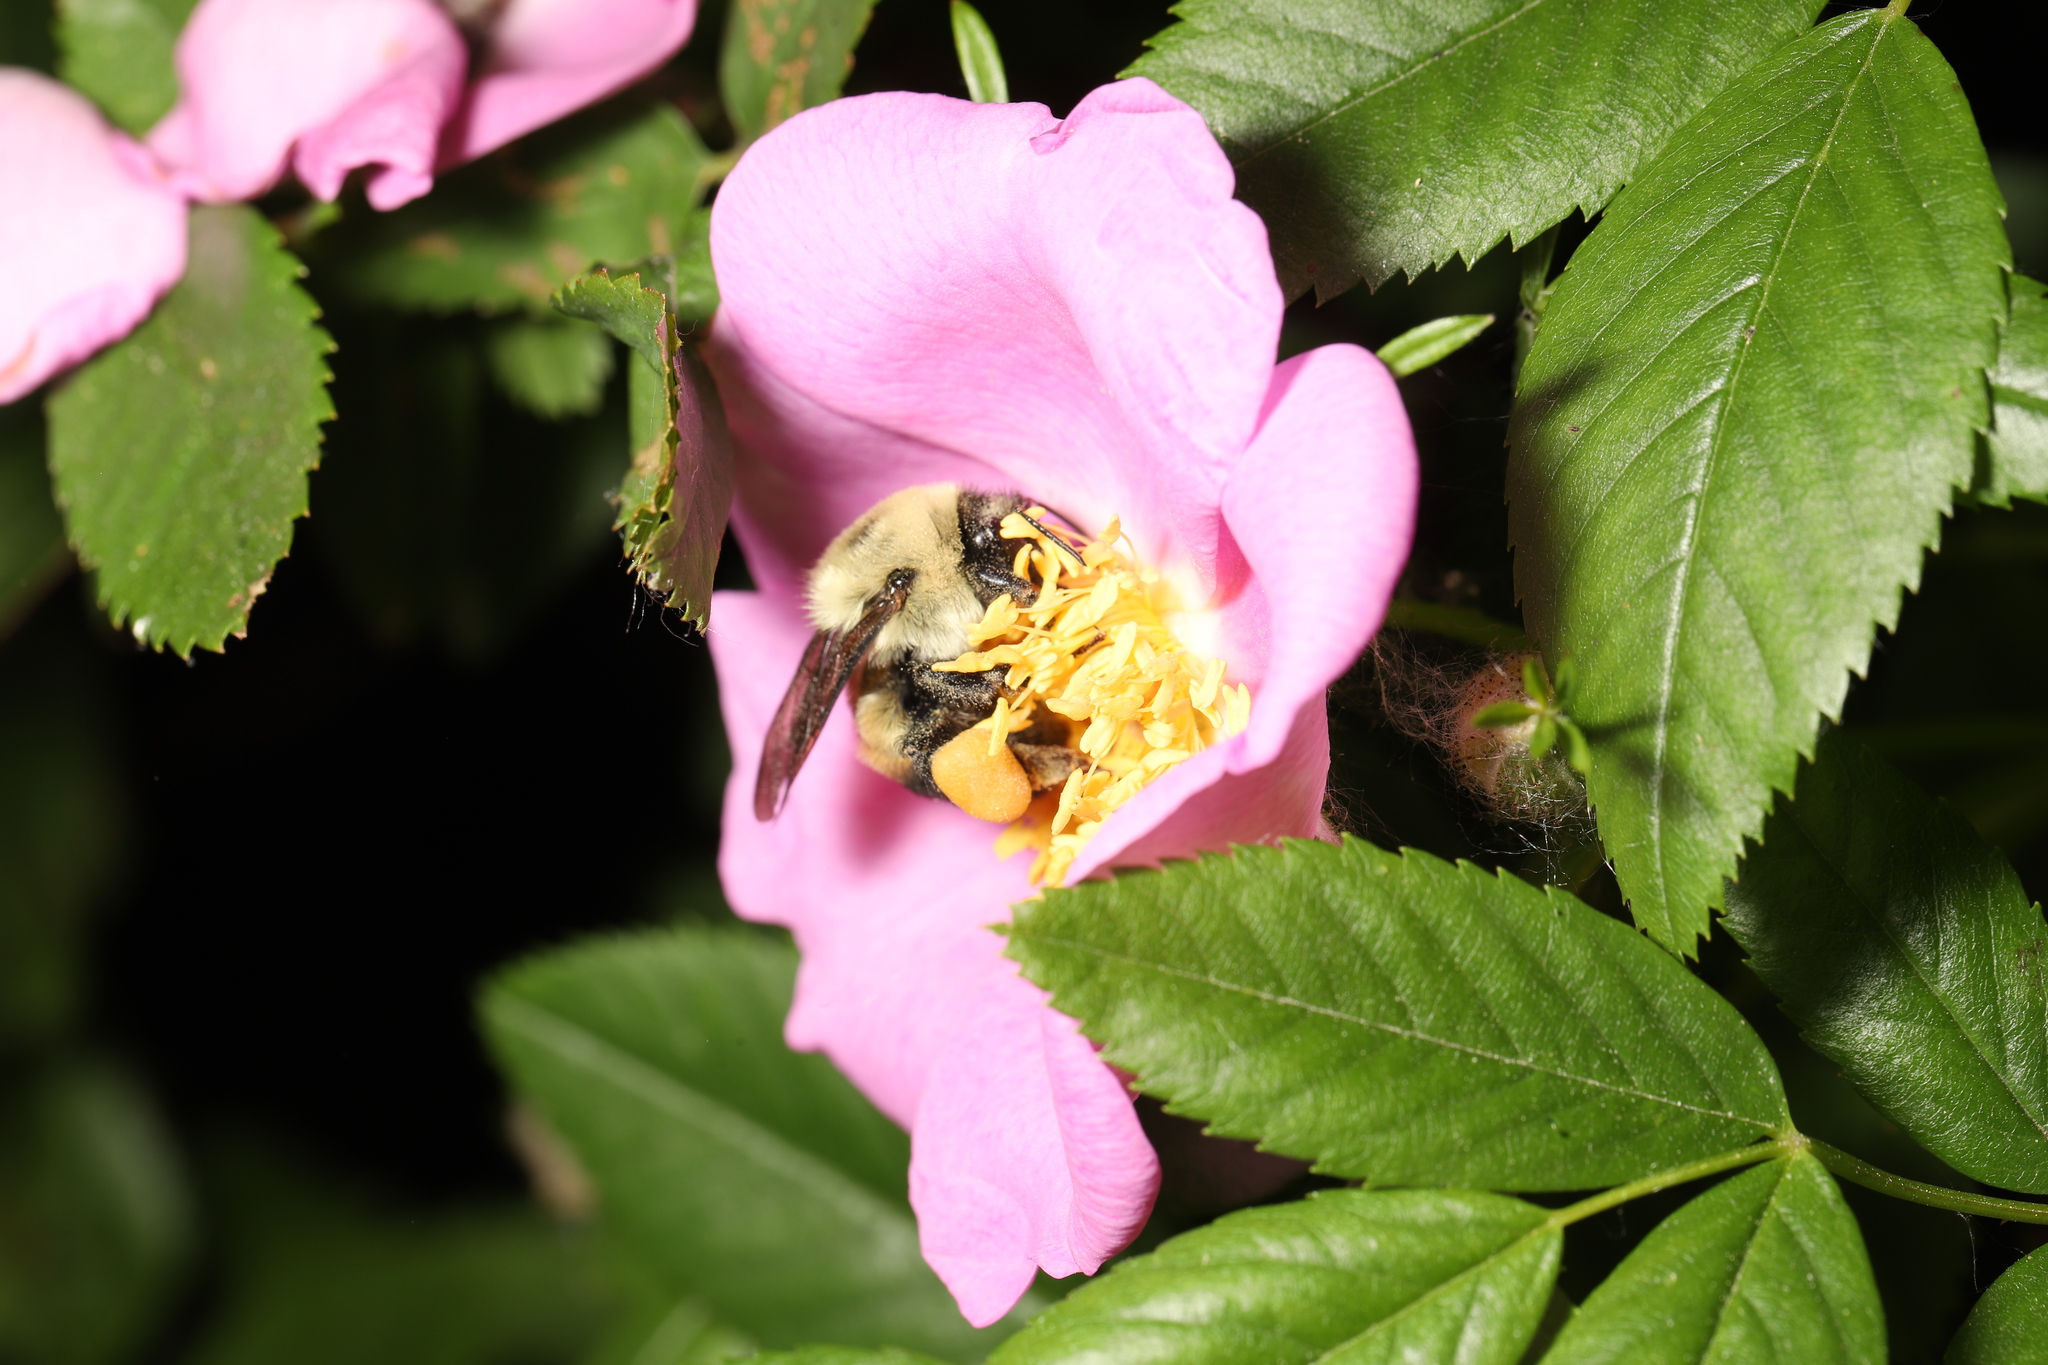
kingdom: Animalia
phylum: Arthropoda
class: Insecta
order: Hymenoptera
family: Apidae
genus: Bombus
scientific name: Bombus griseocollis
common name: Brown-belted bumble bee
